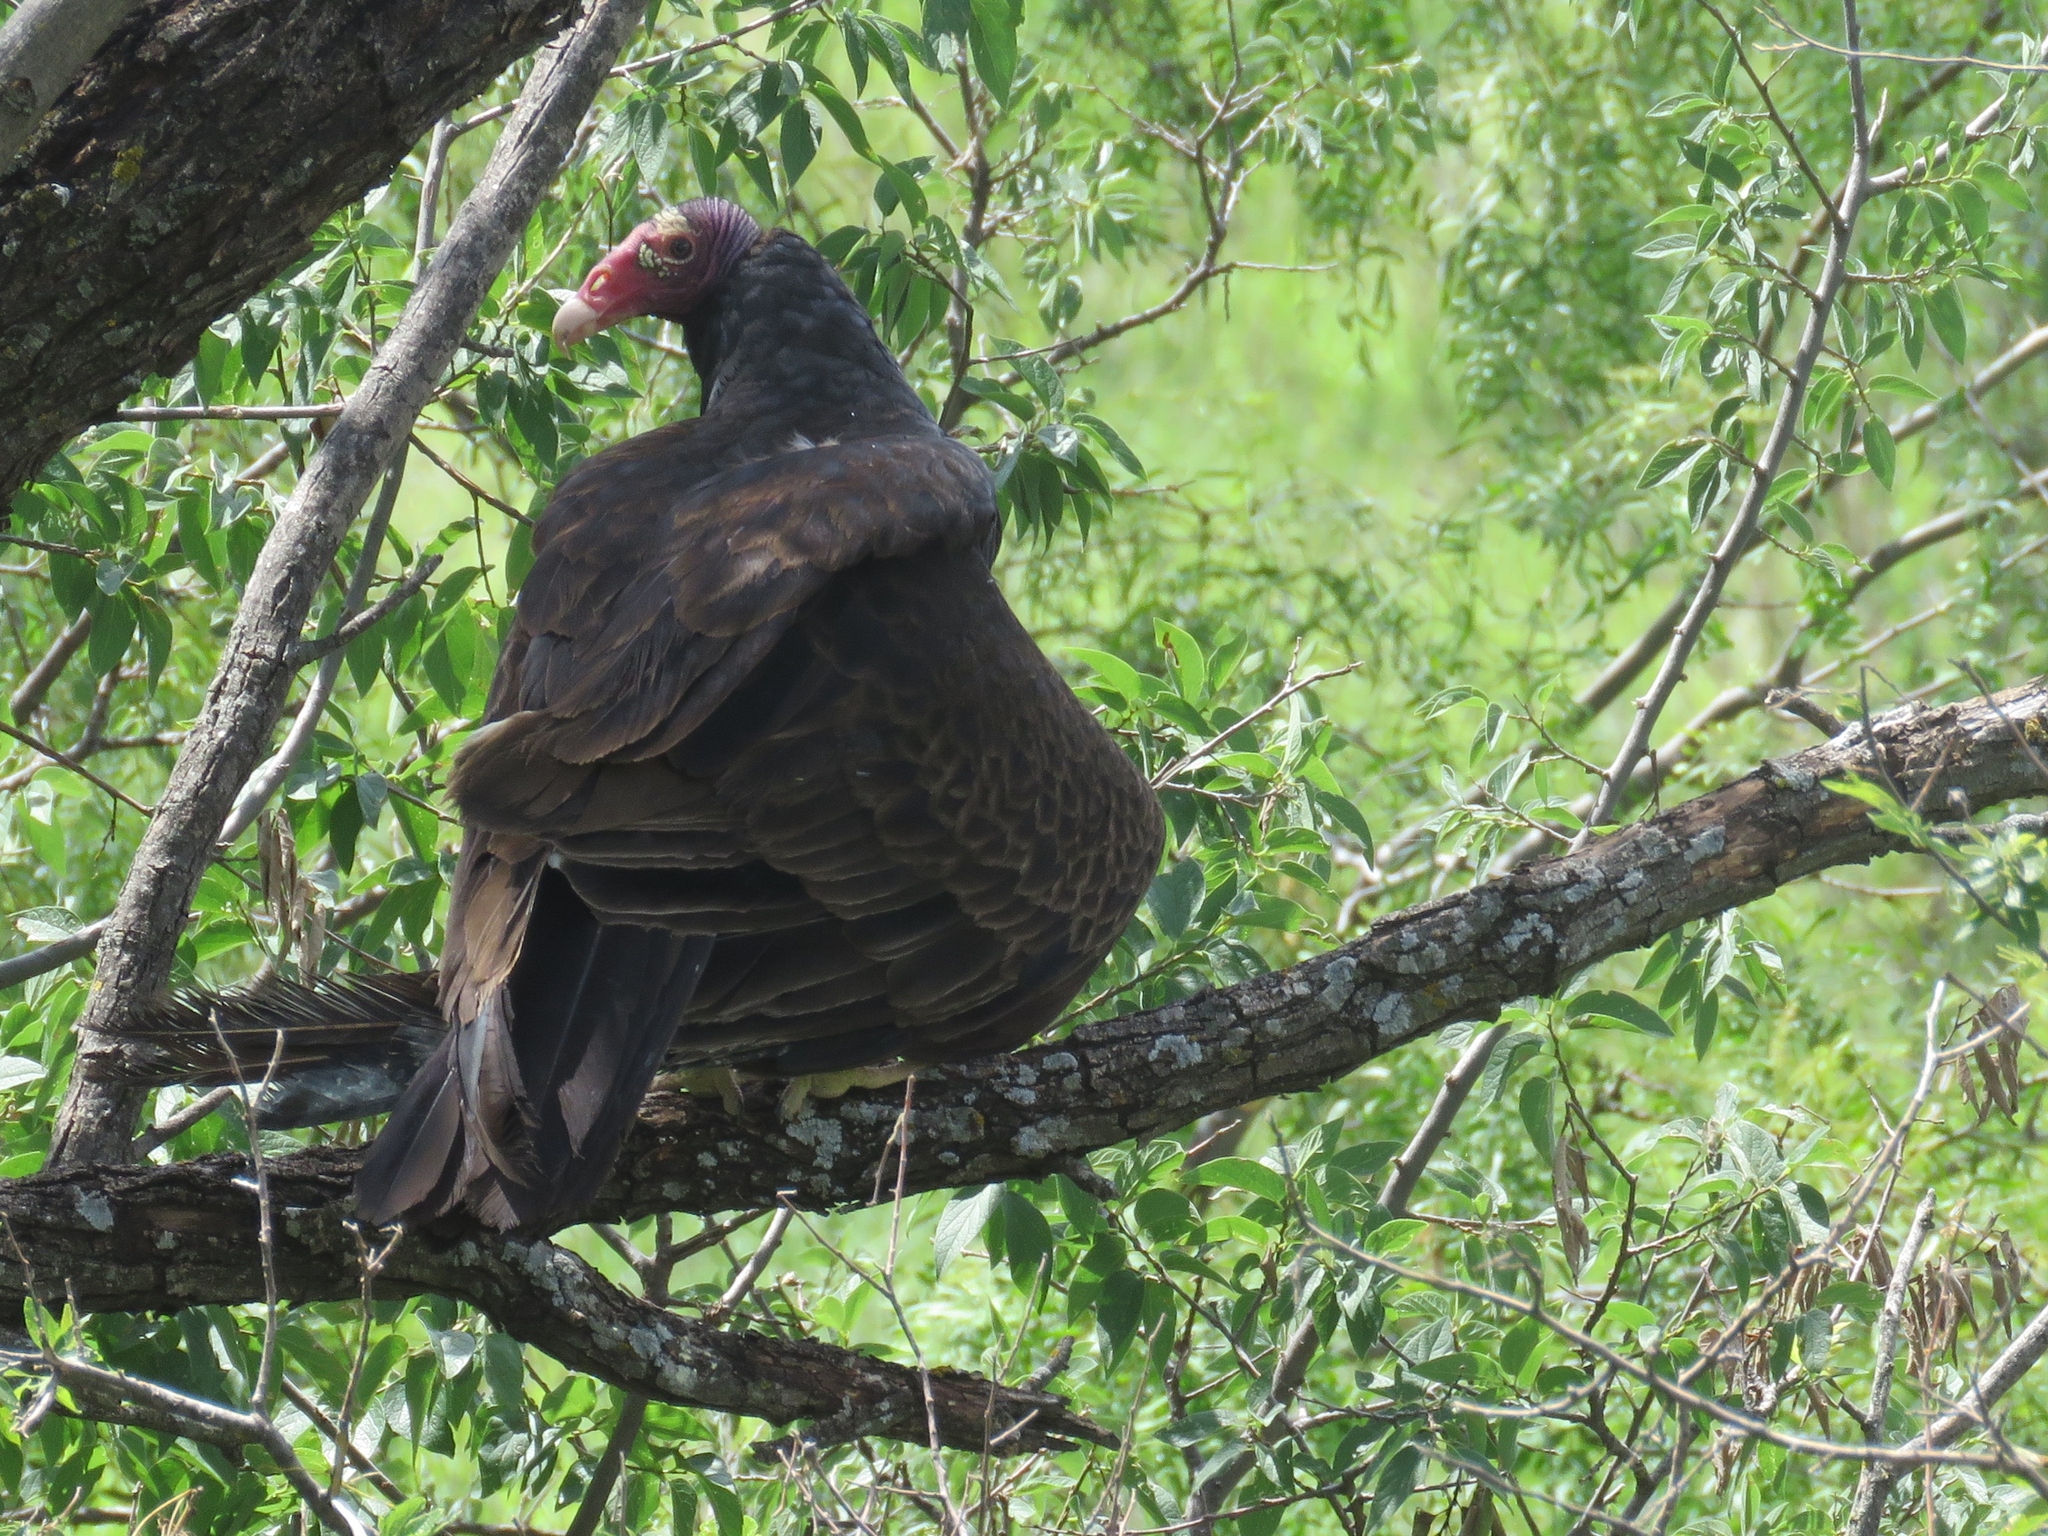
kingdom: Animalia
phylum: Chordata
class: Aves
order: Accipitriformes
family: Cathartidae
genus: Cathartes
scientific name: Cathartes aura
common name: Turkey vulture
